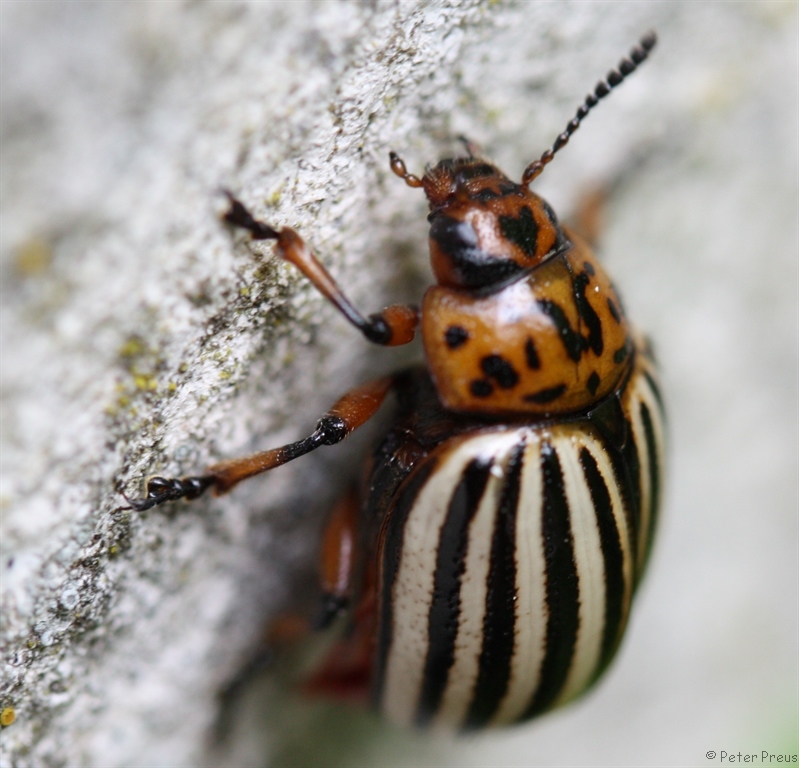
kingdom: Animalia
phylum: Arthropoda
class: Insecta
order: Coleoptera
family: Chrysomelidae
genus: Leptinotarsa
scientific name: Leptinotarsa decemlineata
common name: Colorado potato beetle
